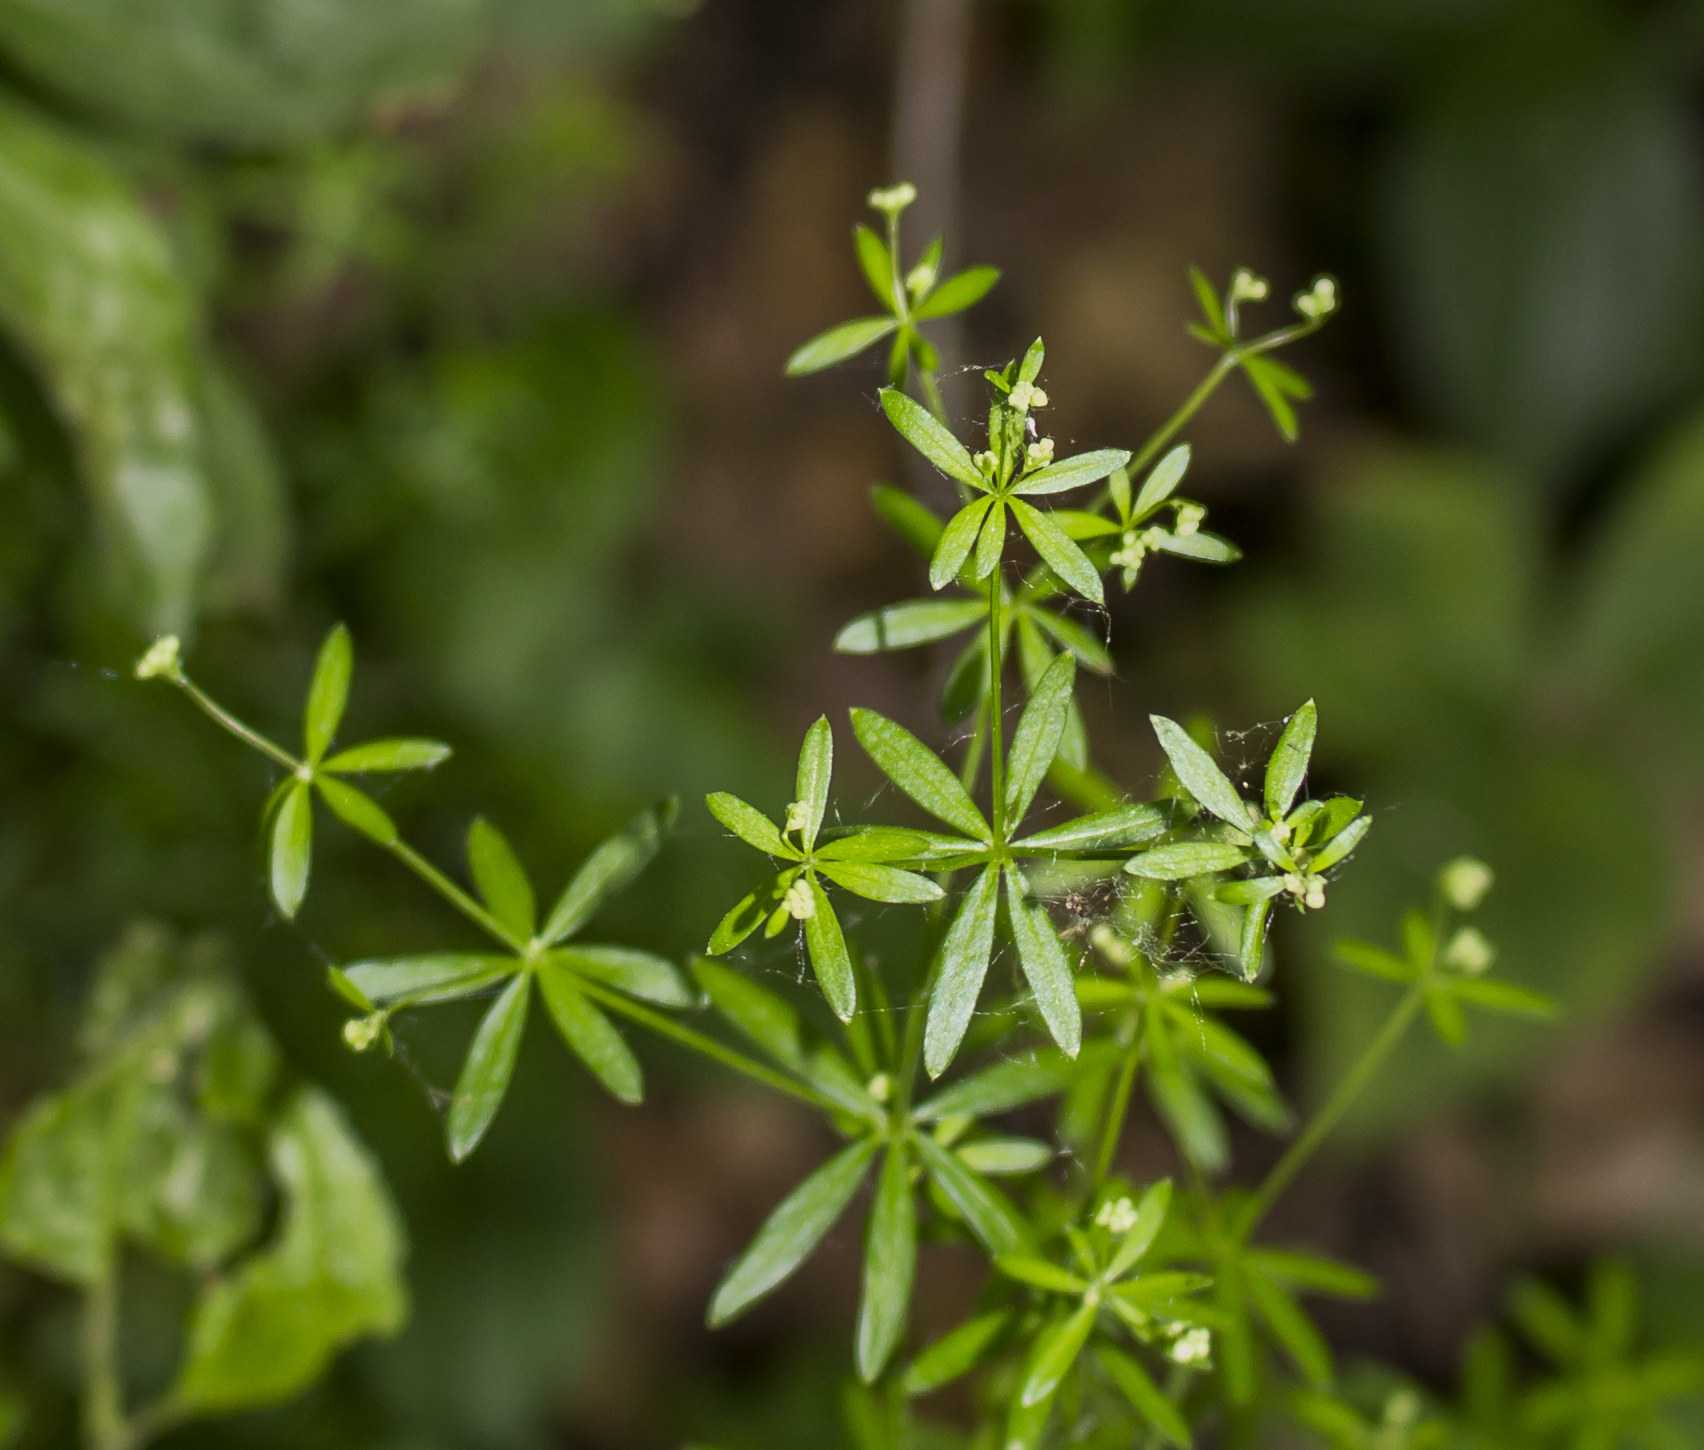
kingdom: Plantae
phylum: Tracheophyta
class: Magnoliopsida
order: Gentianales
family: Rubiaceae
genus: Galium
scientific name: Galium concinnum
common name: Shining bedstraw
